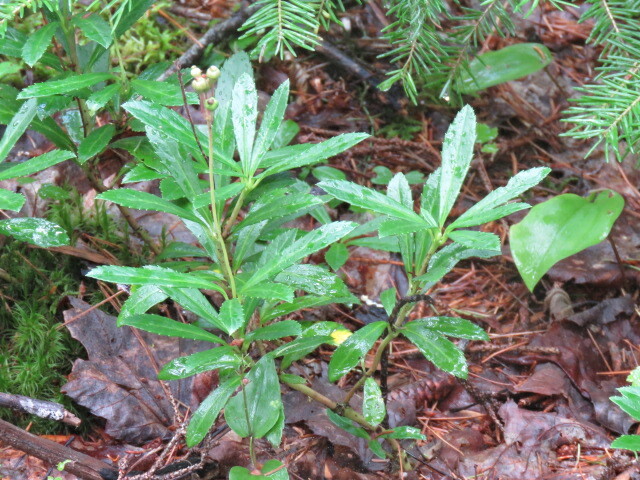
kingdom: Plantae
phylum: Tracheophyta
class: Magnoliopsida
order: Ericales
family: Ericaceae
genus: Chimaphila
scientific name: Chimaphila umbellata
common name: Pipsissewa
